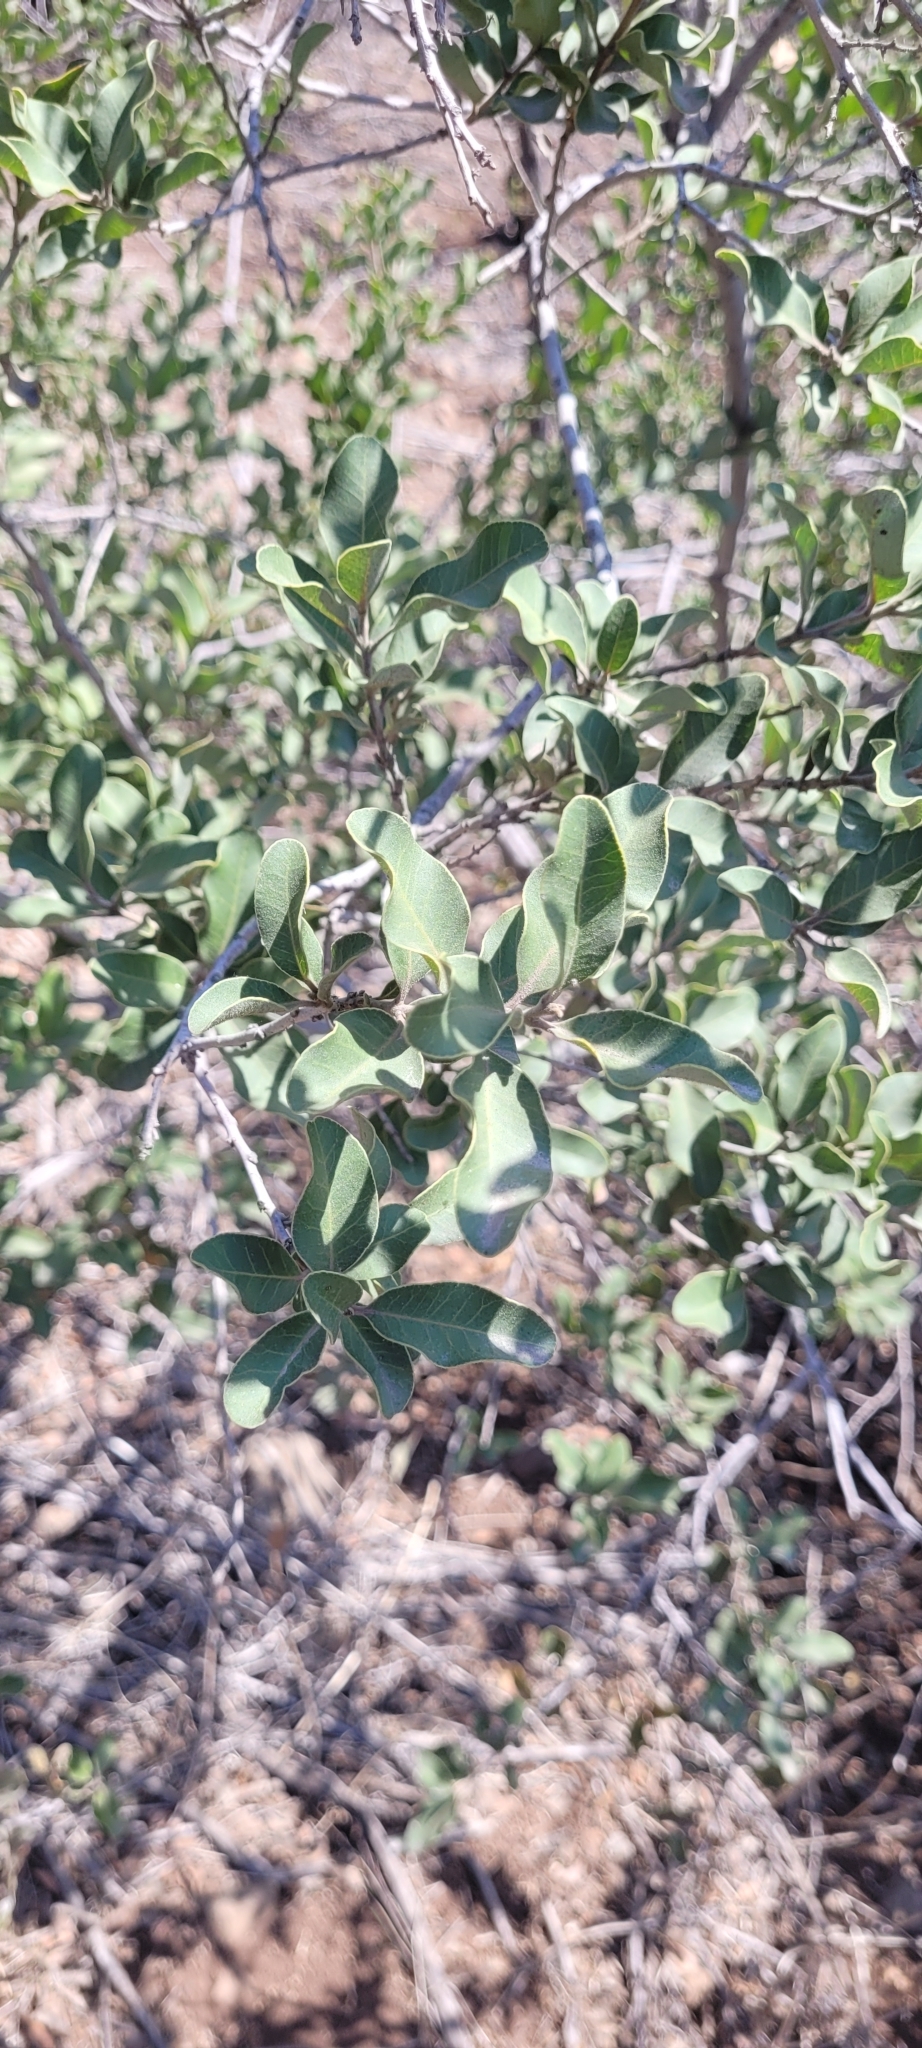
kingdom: Plantae
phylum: Tracheophyta
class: Magnoliopsida
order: Sapindales
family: Anacardiaceae
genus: Lithraea
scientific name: Lithraea caustica
